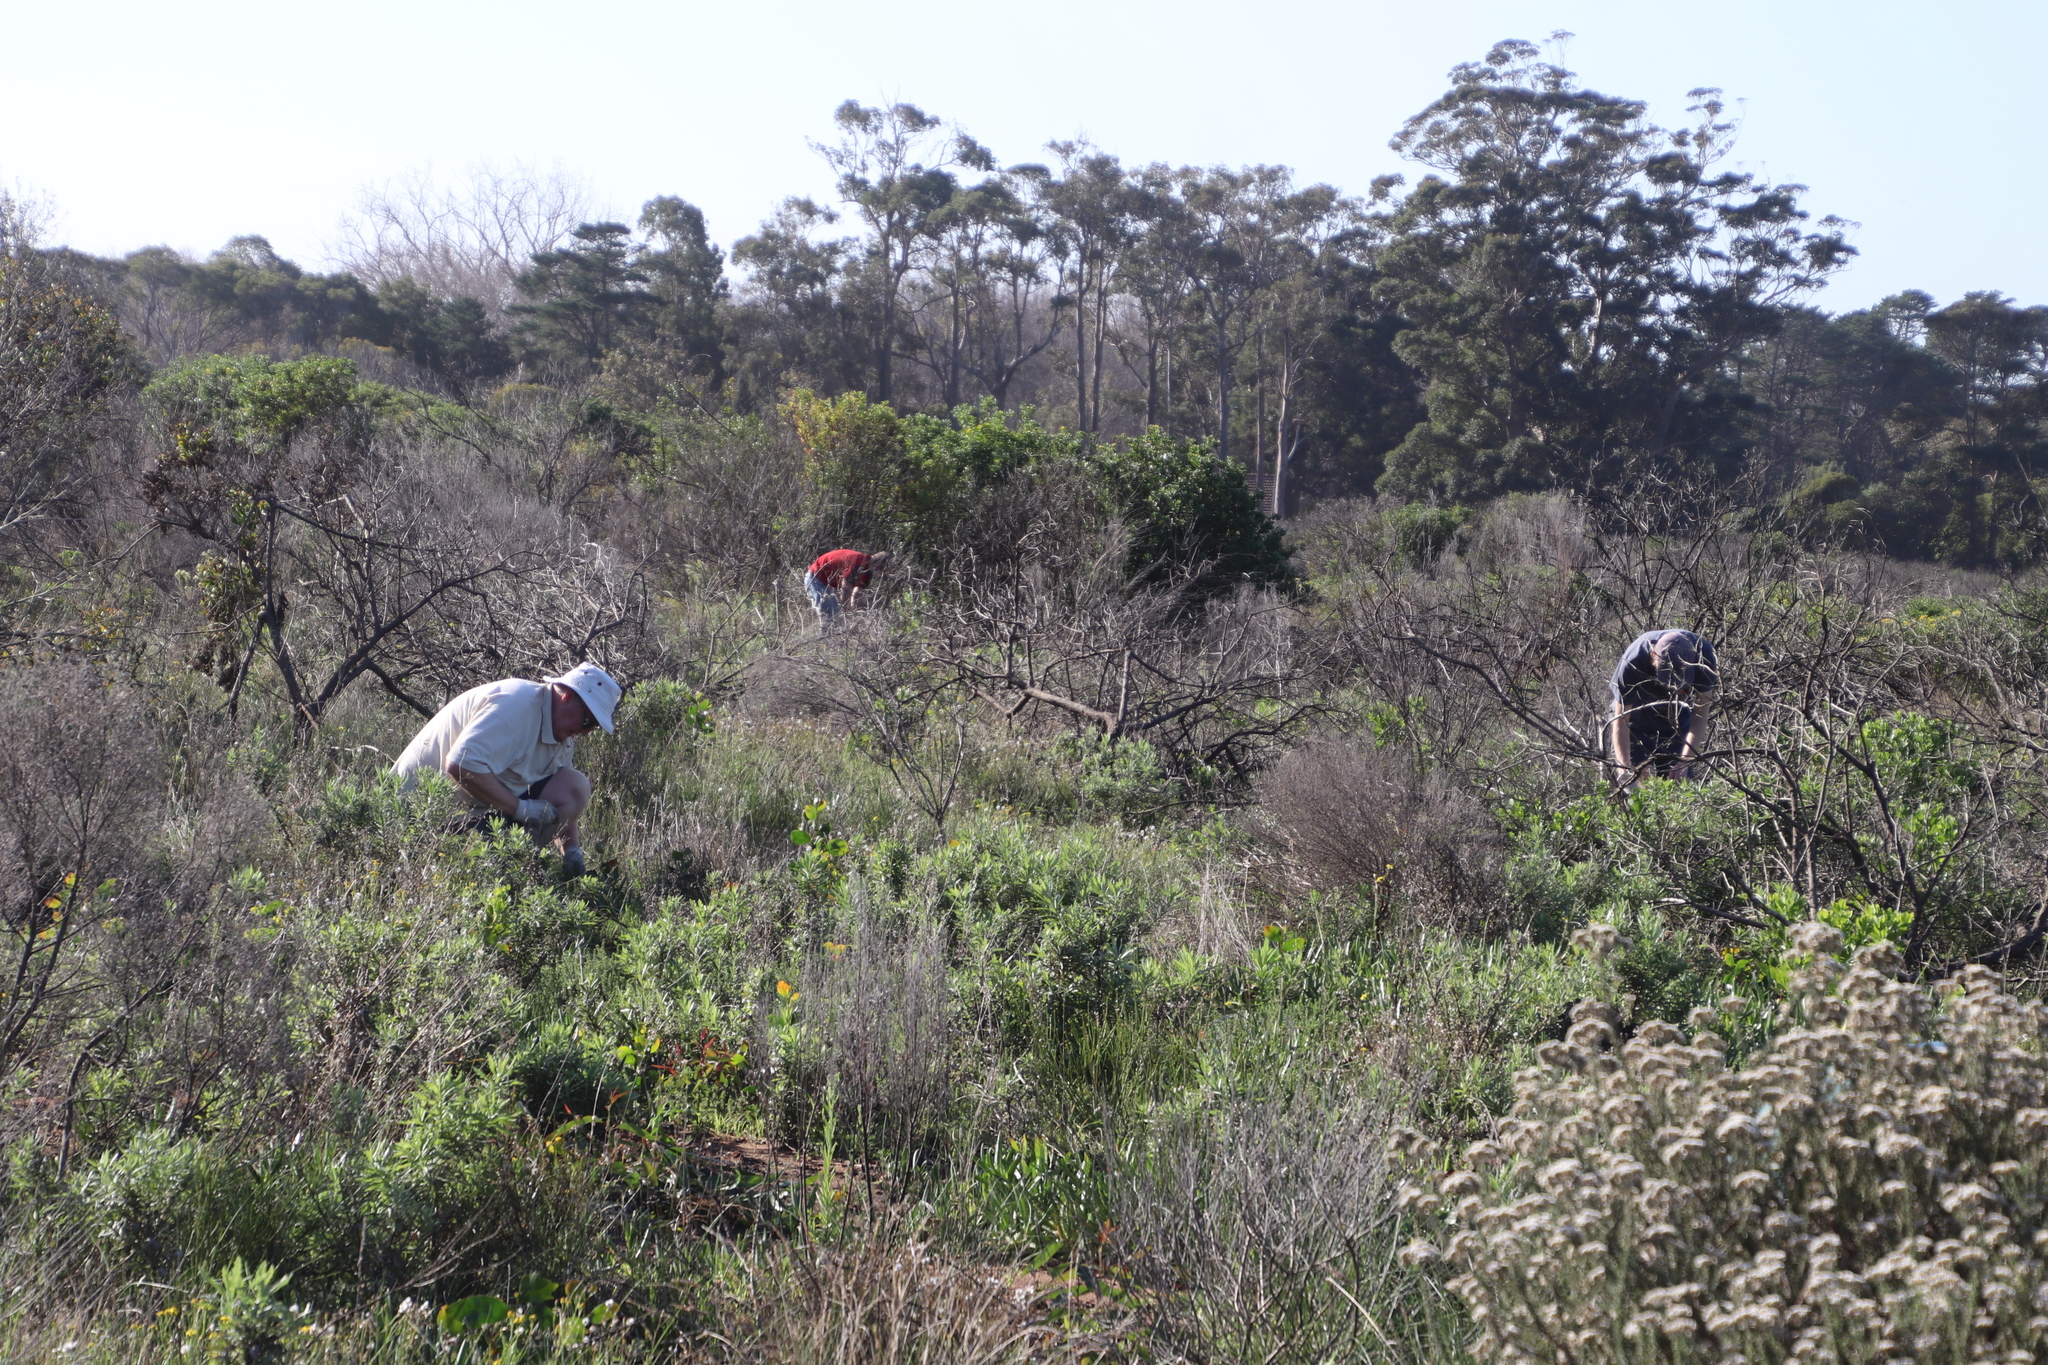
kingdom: Plantae
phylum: Tracheophyta
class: Magnoliopsida
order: Asterales
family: Asteraceae
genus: Senecio
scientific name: Senecio pterophorus
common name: Shoddy ragwort
